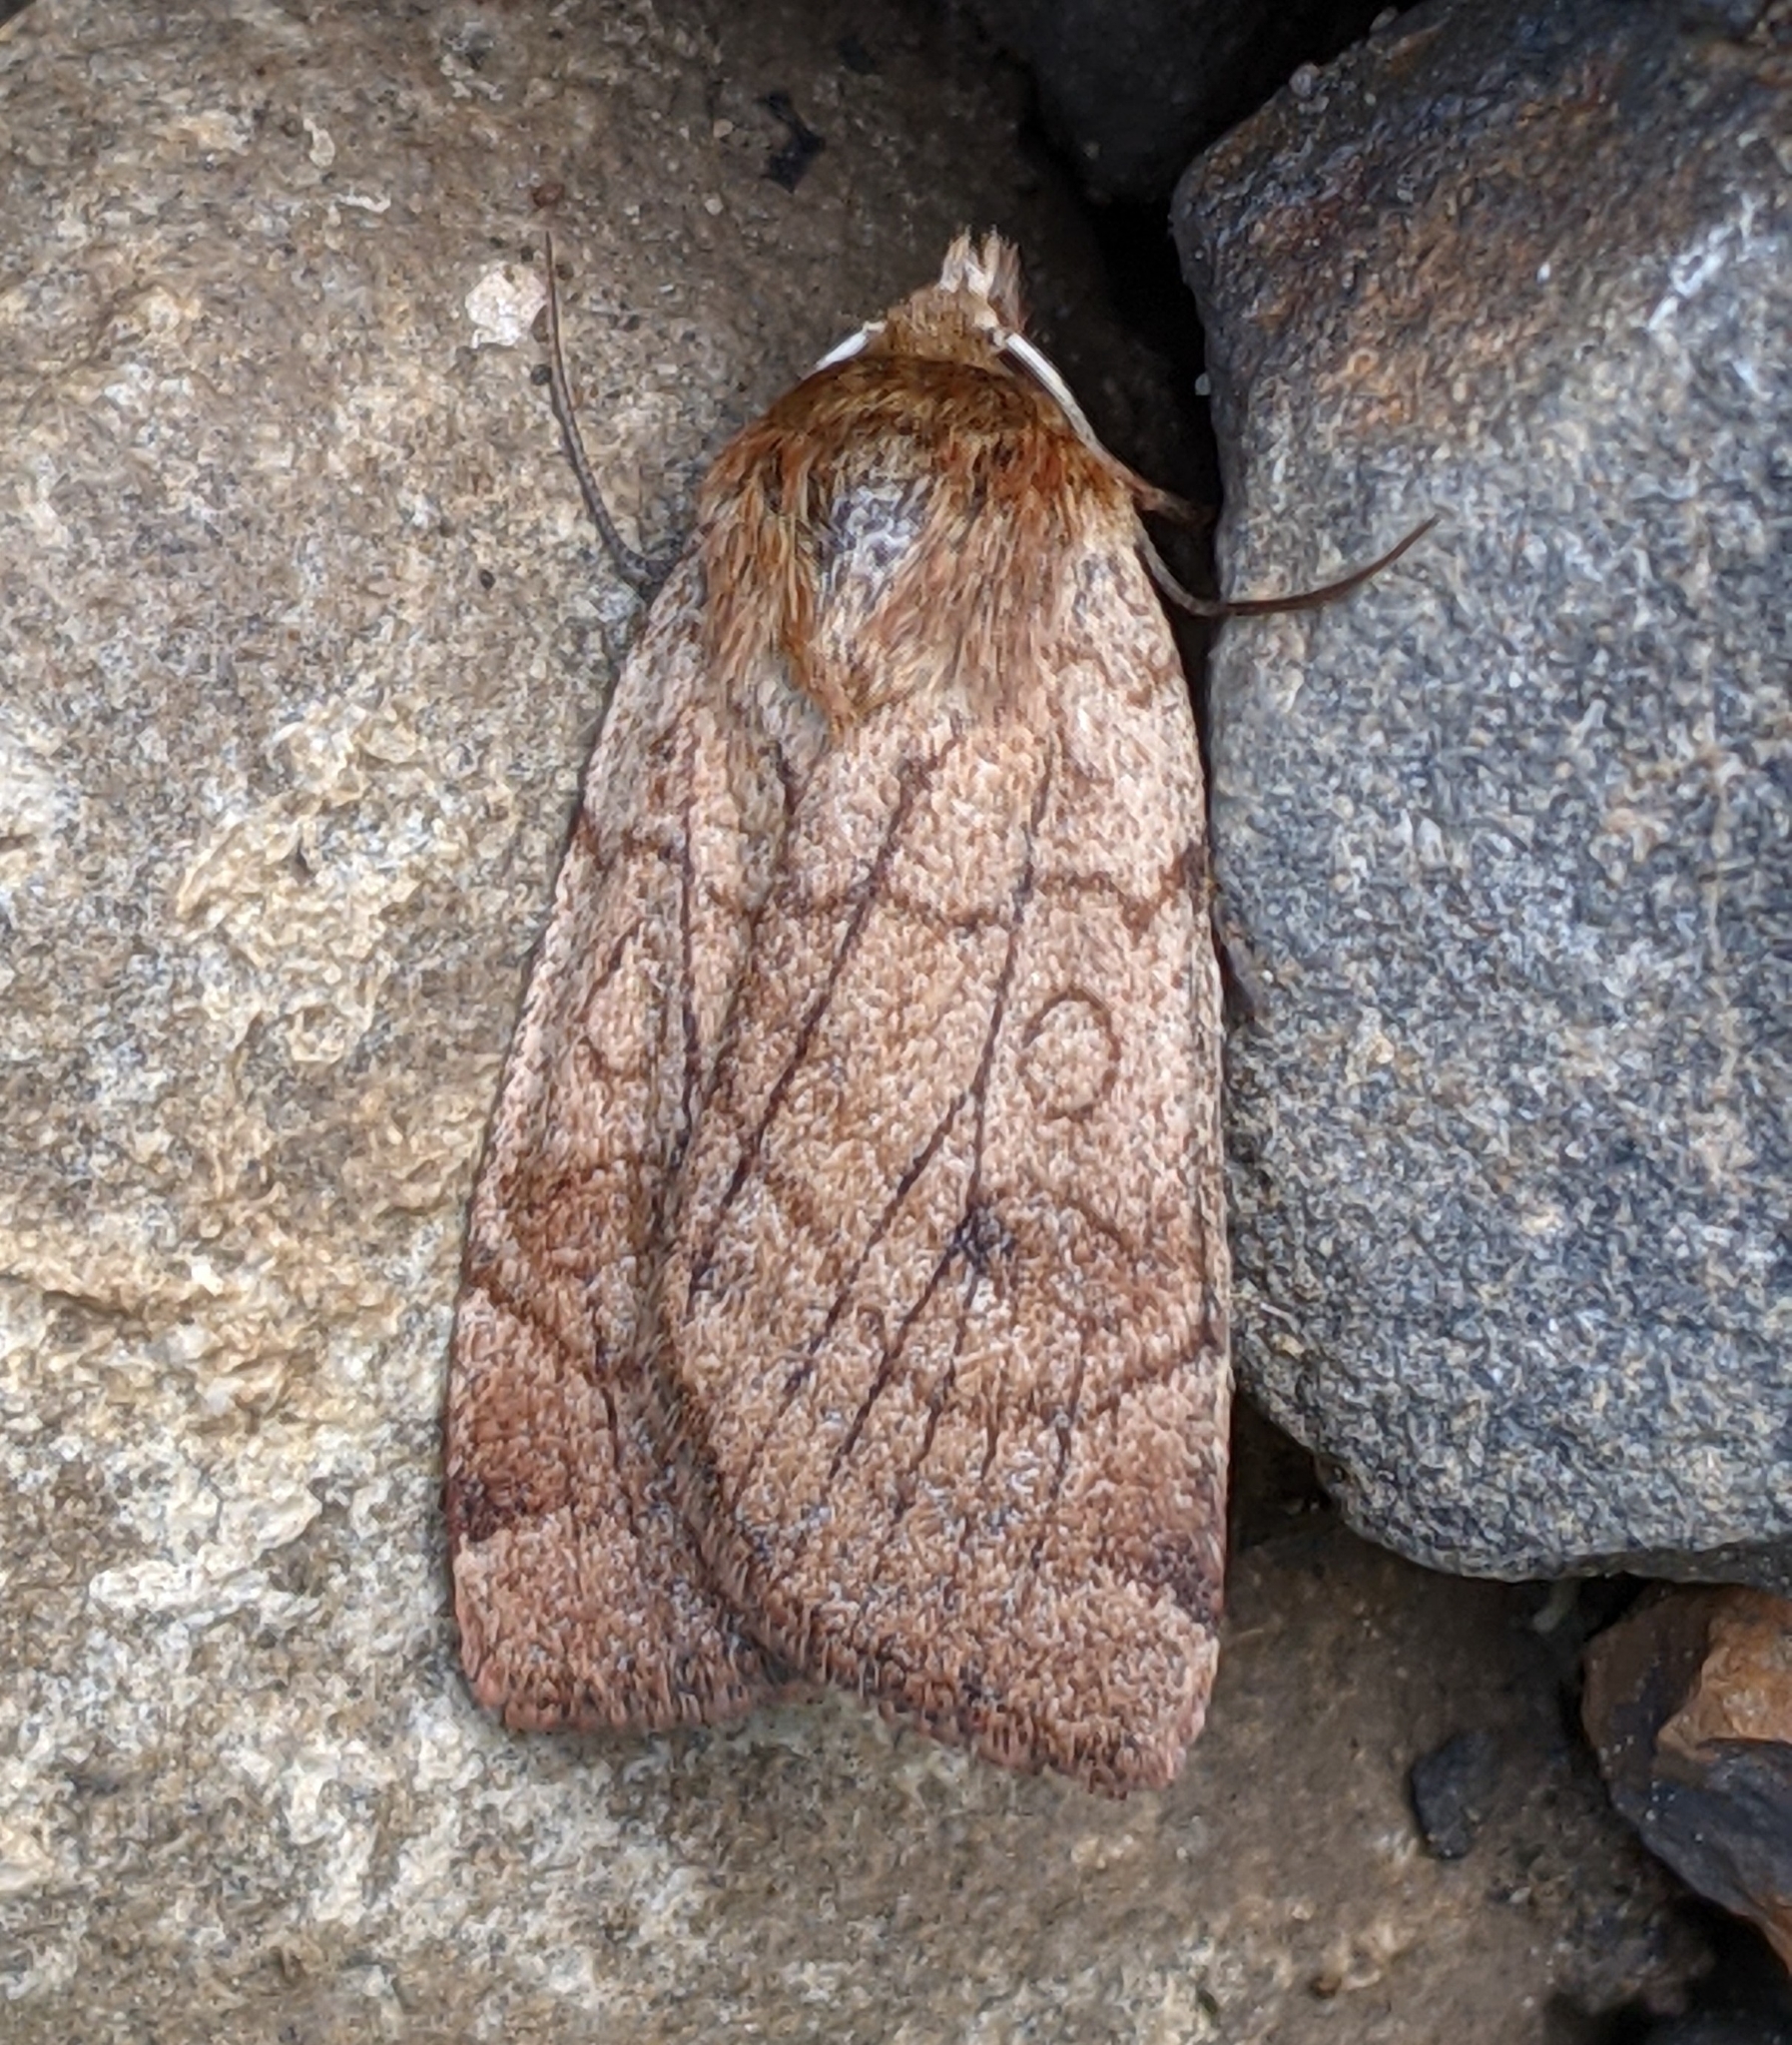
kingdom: Animalia
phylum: Arthropoda
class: Insecta
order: Lepidoptera
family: Noctuidae
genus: Paradiarsia
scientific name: Paradiarsia littoralis
